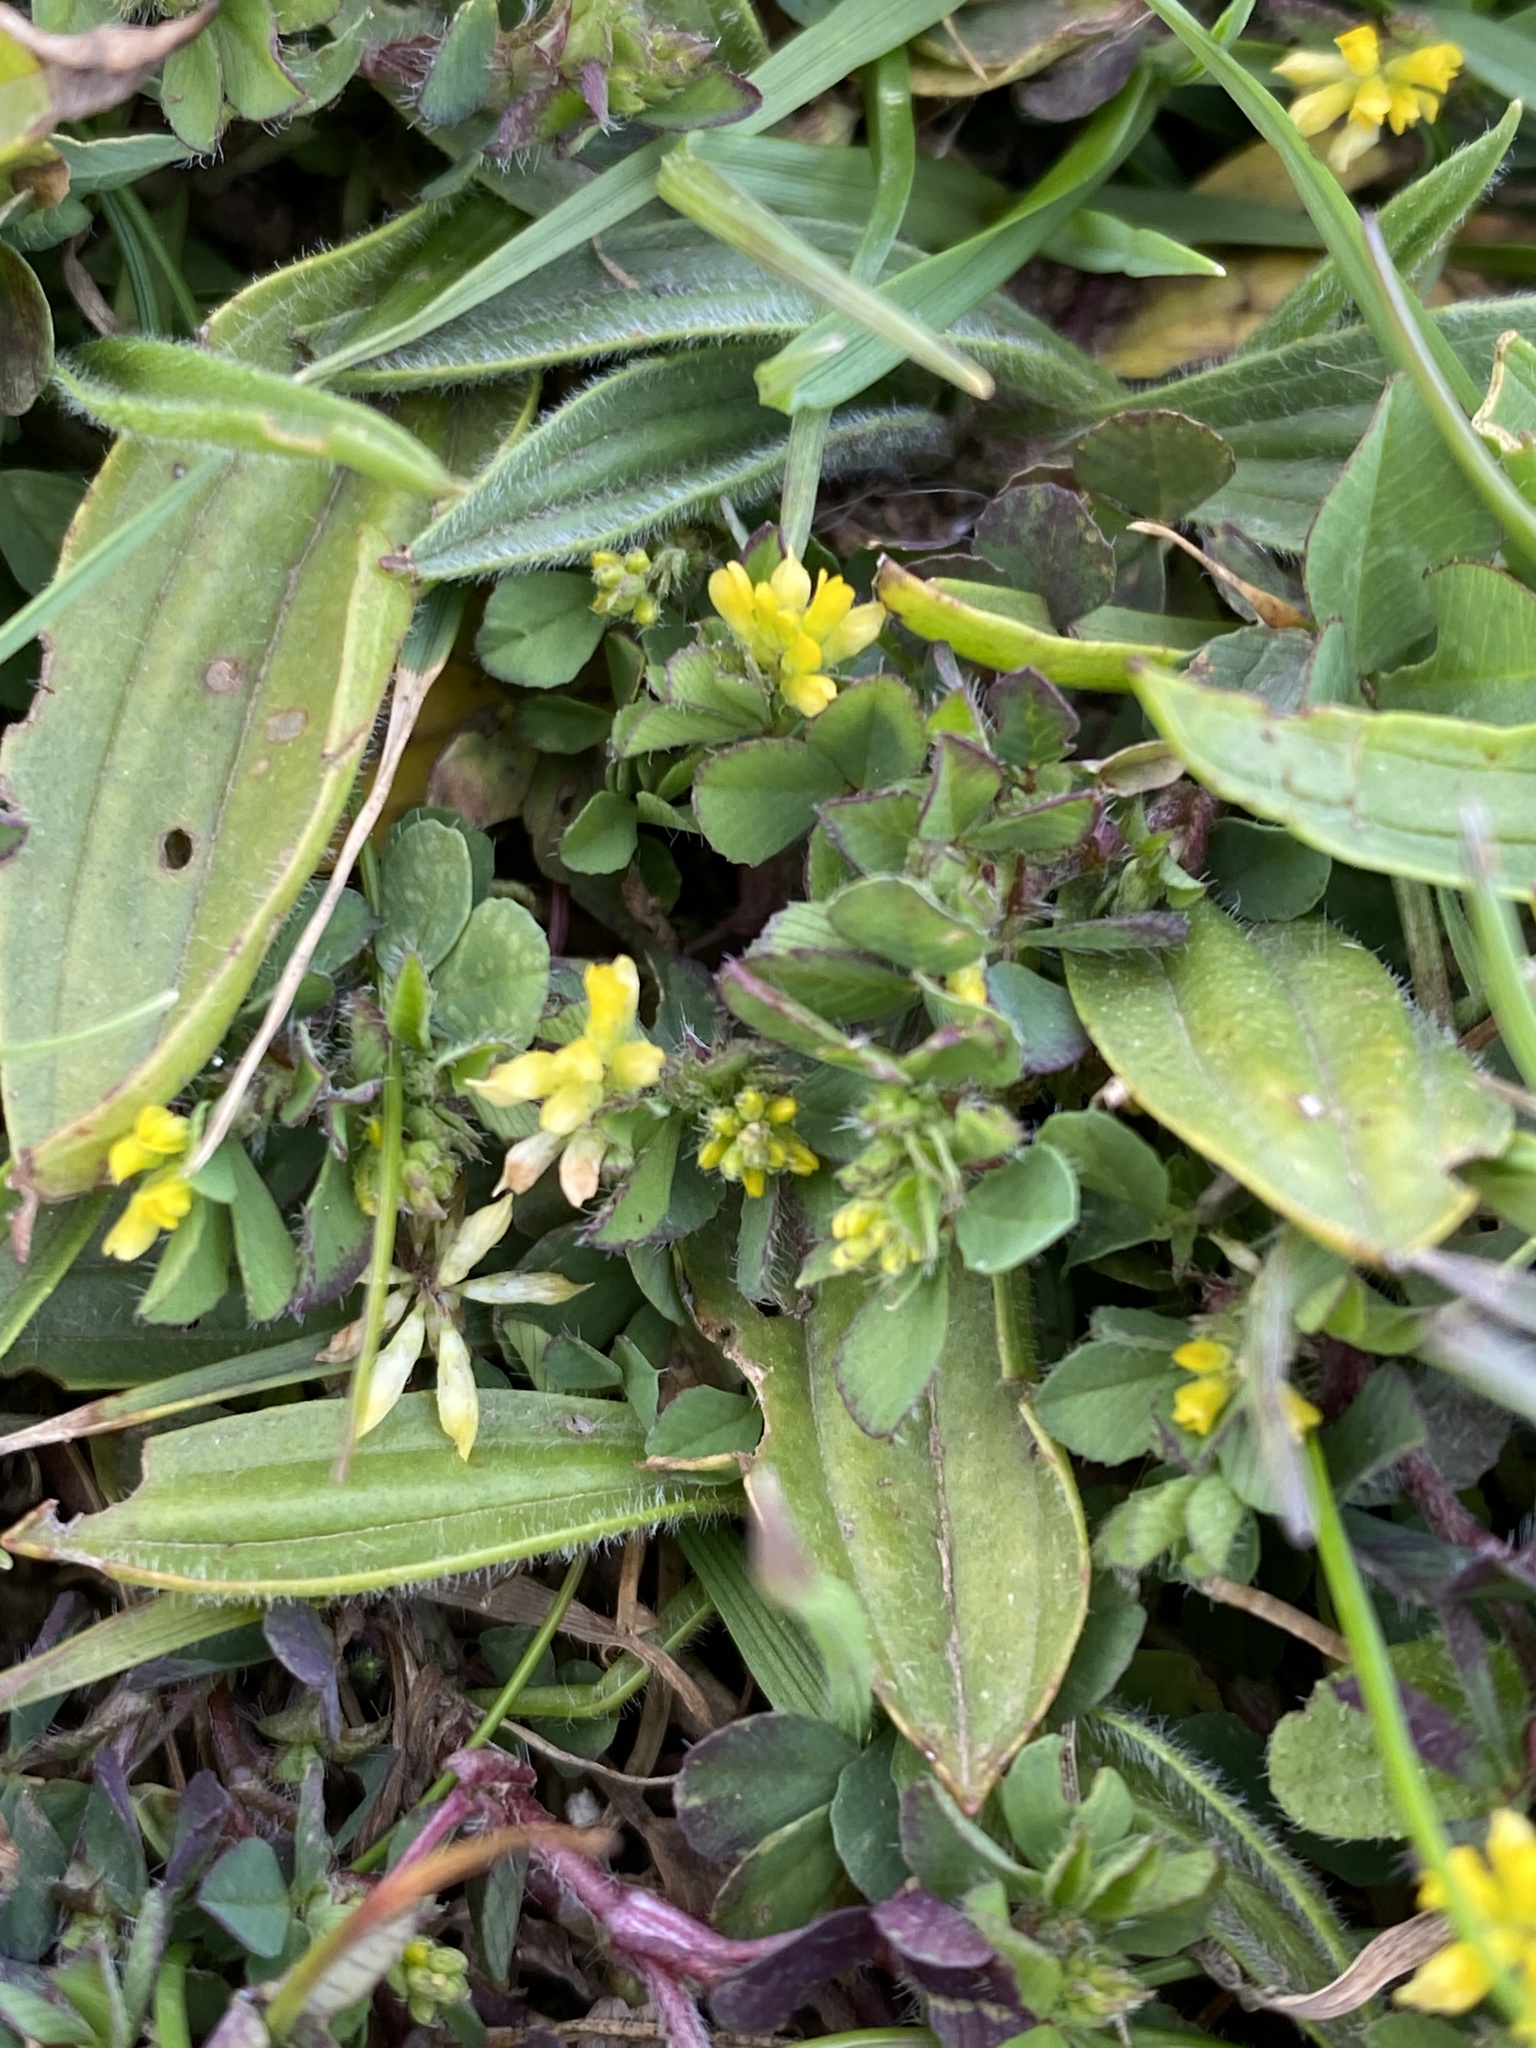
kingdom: Plantae
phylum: Tracheophyta
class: Magnoliopsida
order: Fabales
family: Fabaceae
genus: Trifolium
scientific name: Trifolium dubium
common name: Suckling clover
